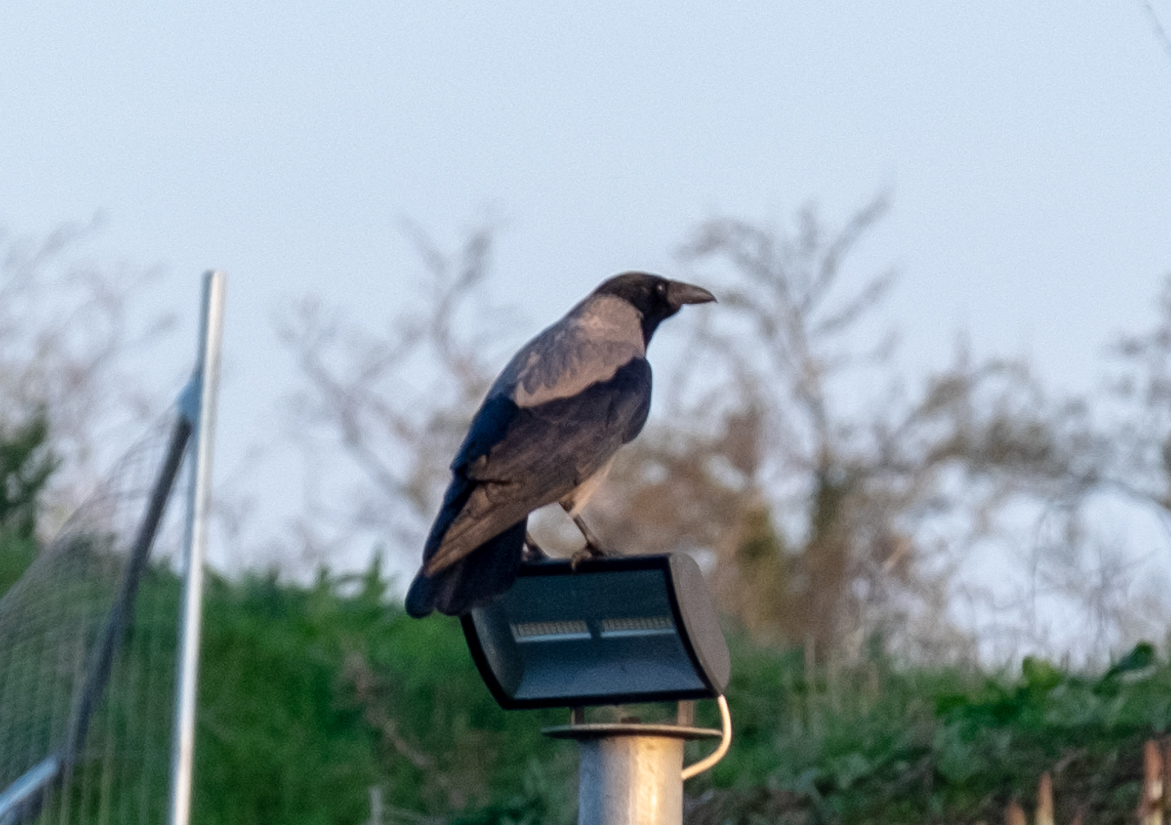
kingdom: Animalia
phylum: Chordata
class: Aves
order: Passeriformes
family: Corvidae
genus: Corvus
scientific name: Corvus cornix
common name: Hooded crow
